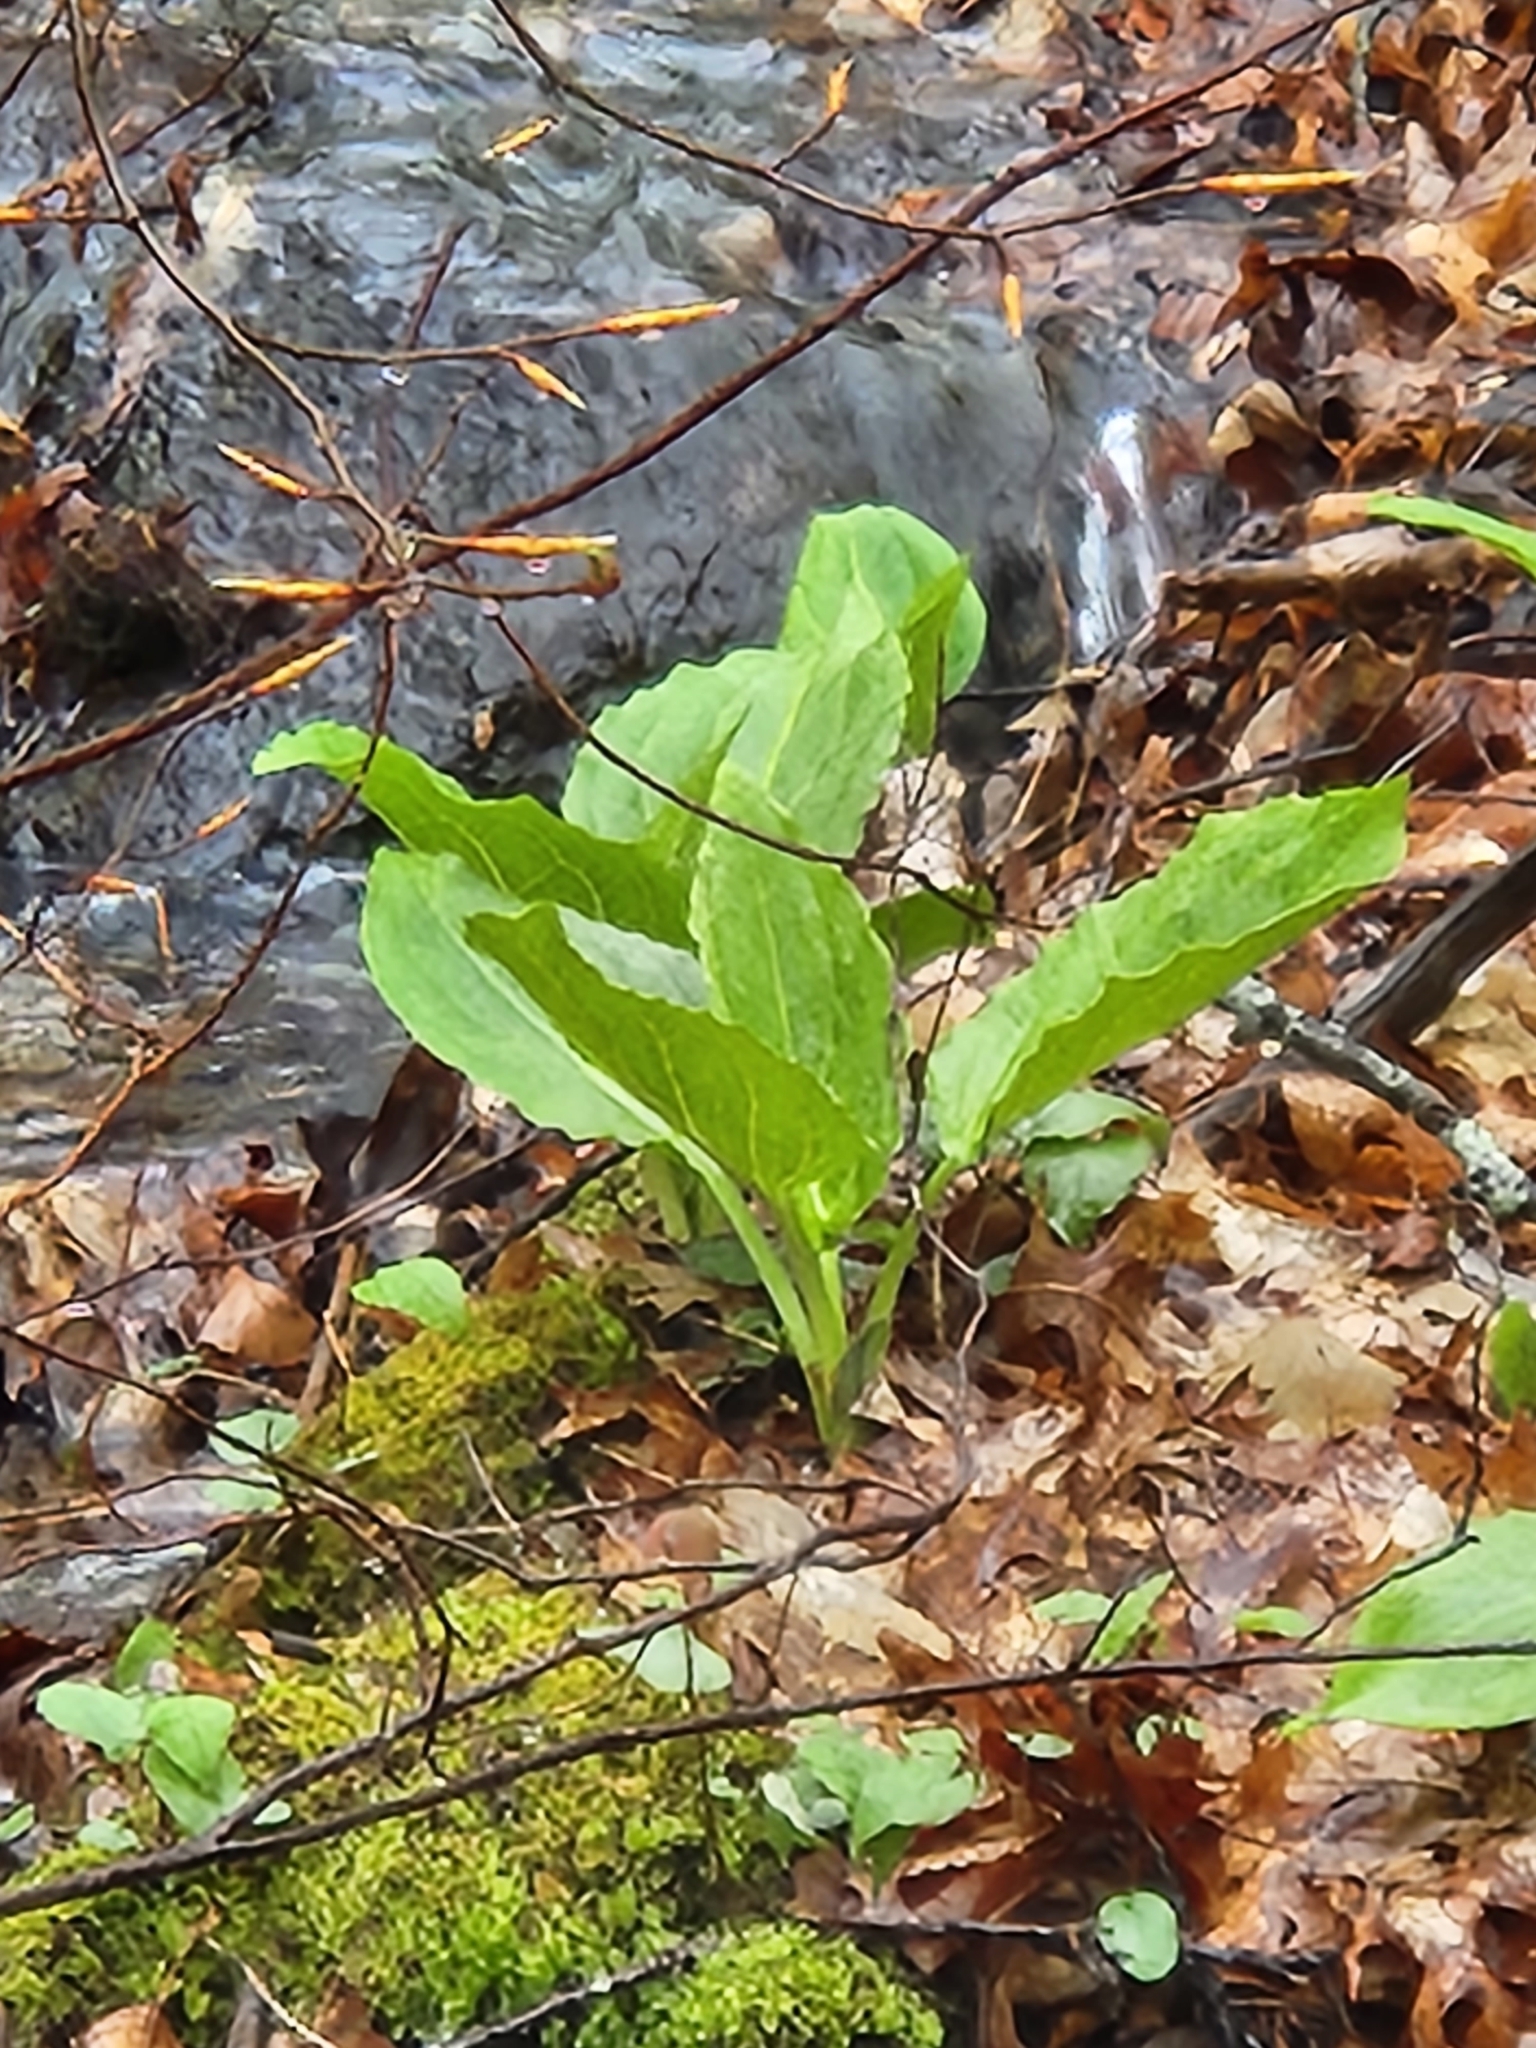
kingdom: Plantae
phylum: Tracheophyta
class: Liliopsida
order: Alismatales
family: Araceae
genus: Symplocarpus
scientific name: Symplocarpus foetidus
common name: Eastern skunk cabbage
